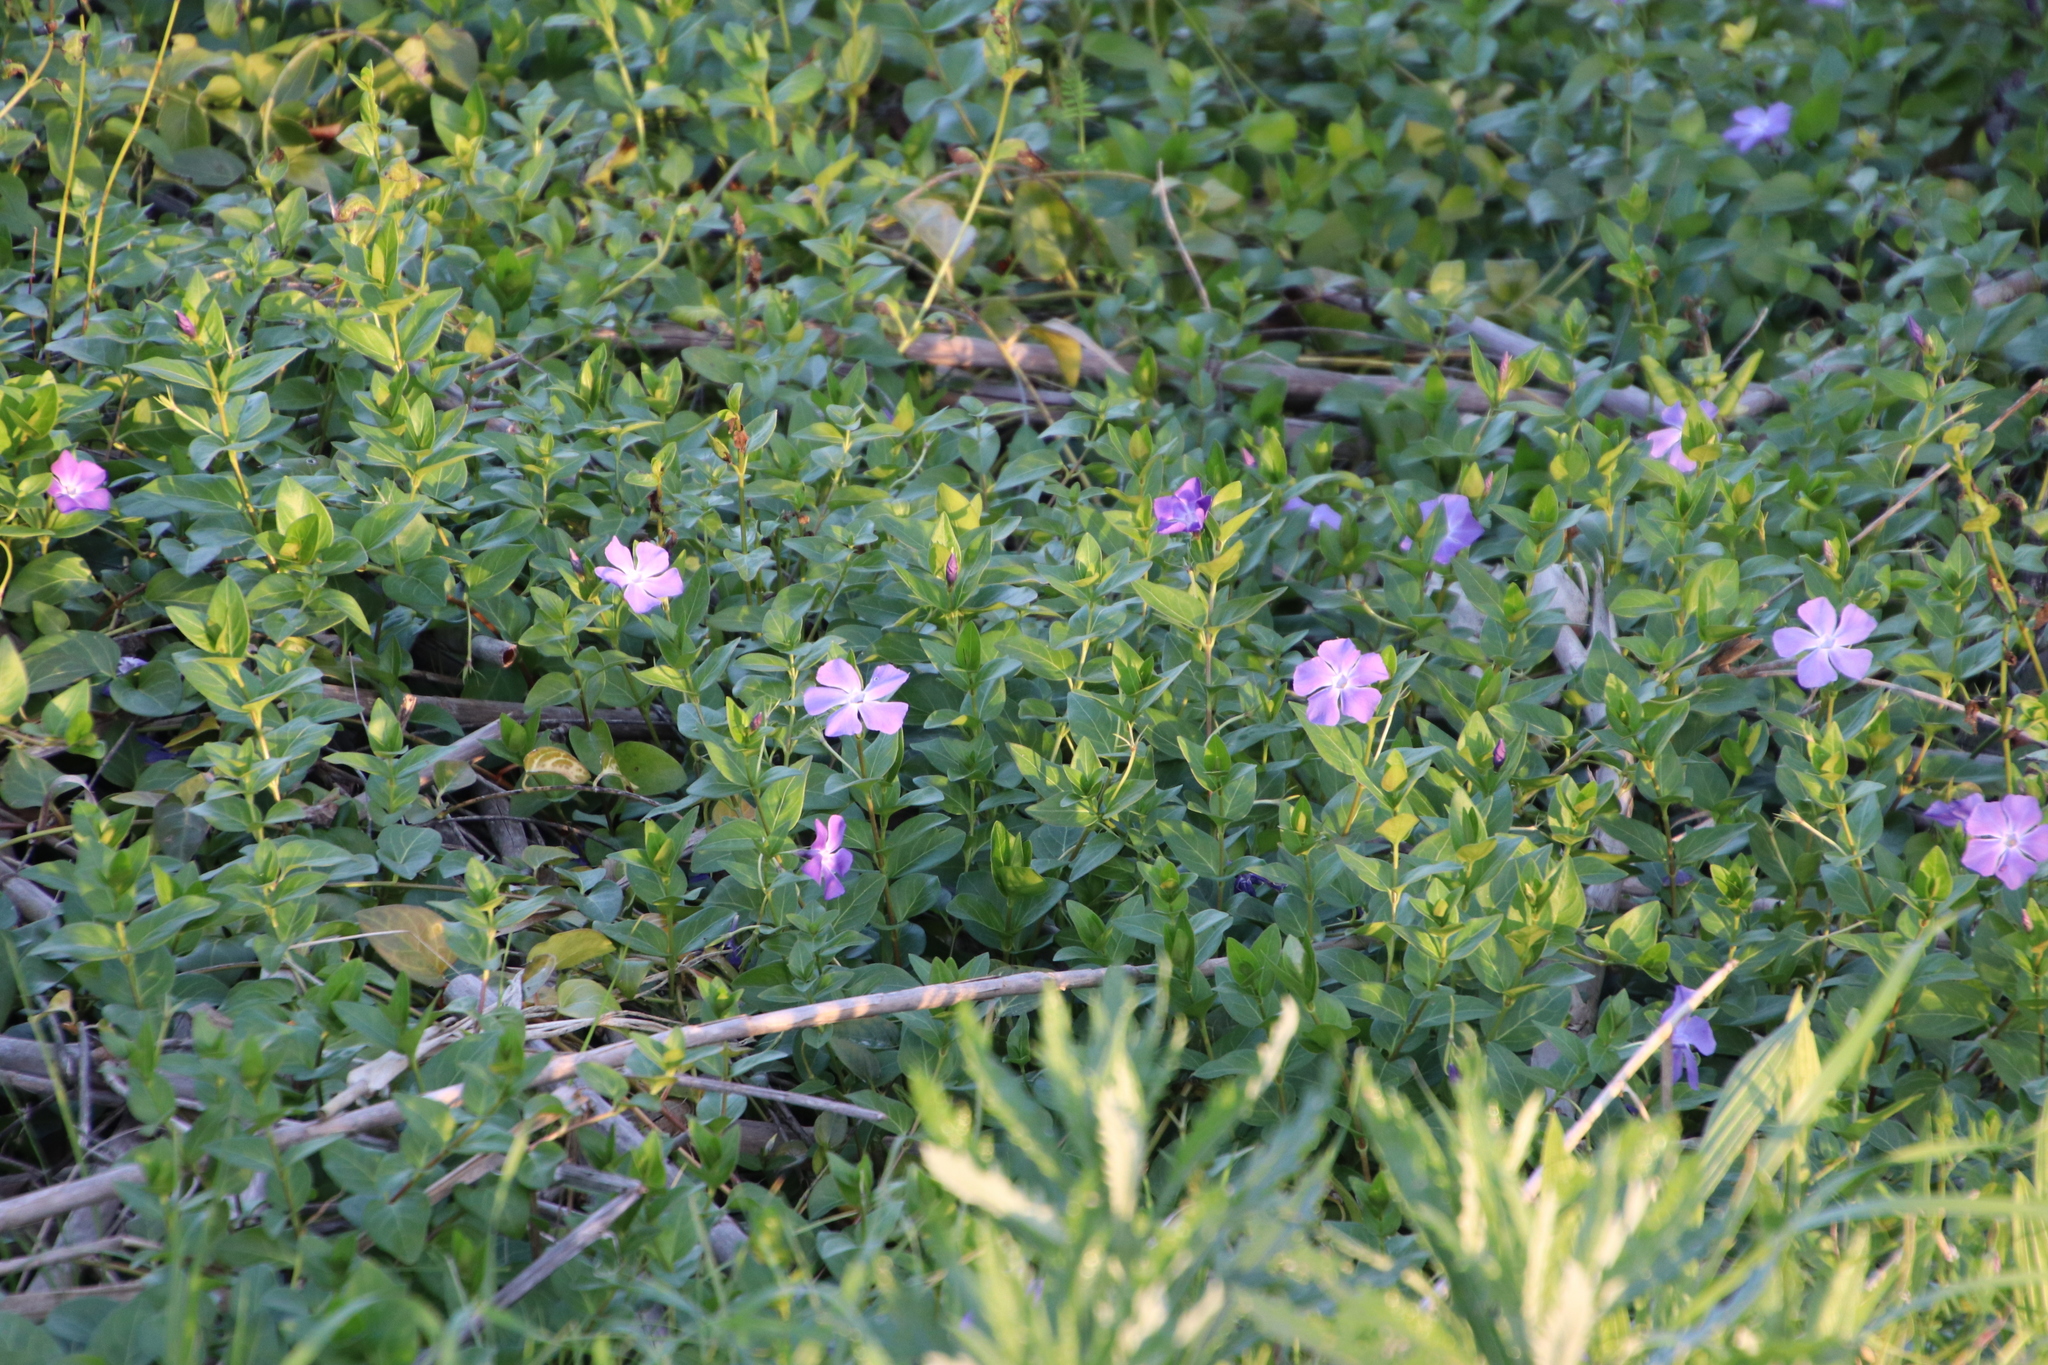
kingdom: Plantae
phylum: Tracheophyta
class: Magnoliopsida
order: Gentianales
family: Apocynaceae
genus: Vinca
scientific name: Vinca major
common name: Greater periwinkle
